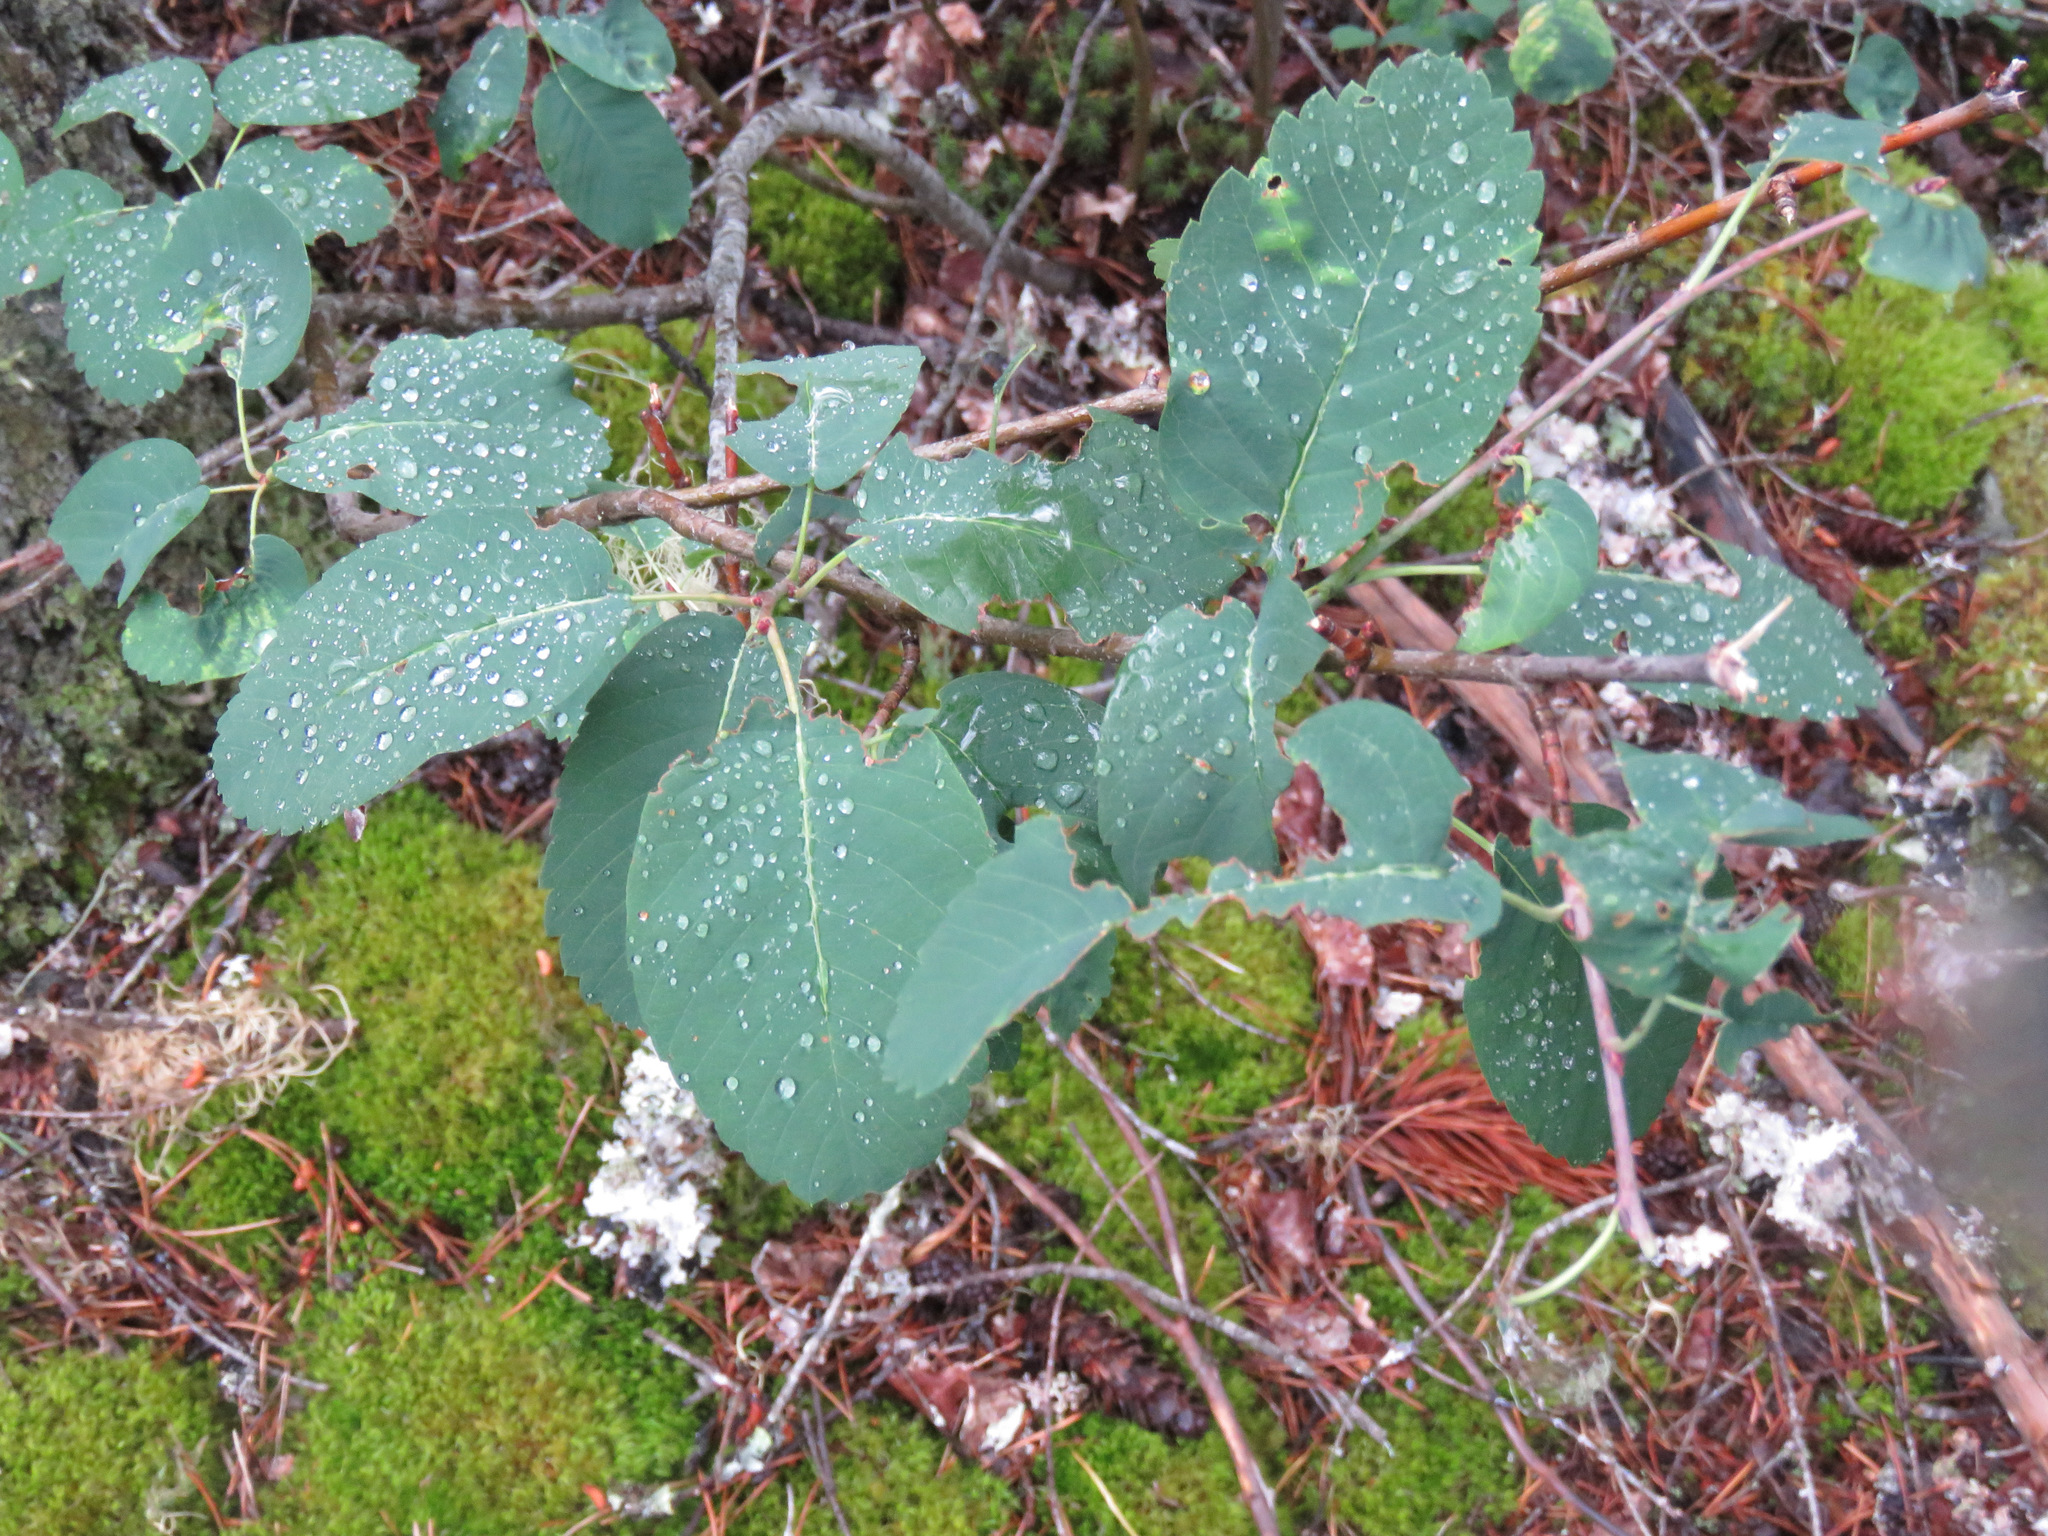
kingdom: Plantae
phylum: Tracheophyta
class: Magnoliopsida
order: Rosales
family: Rosaceae
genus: Amelanchier
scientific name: Amelanchier alnifolia
